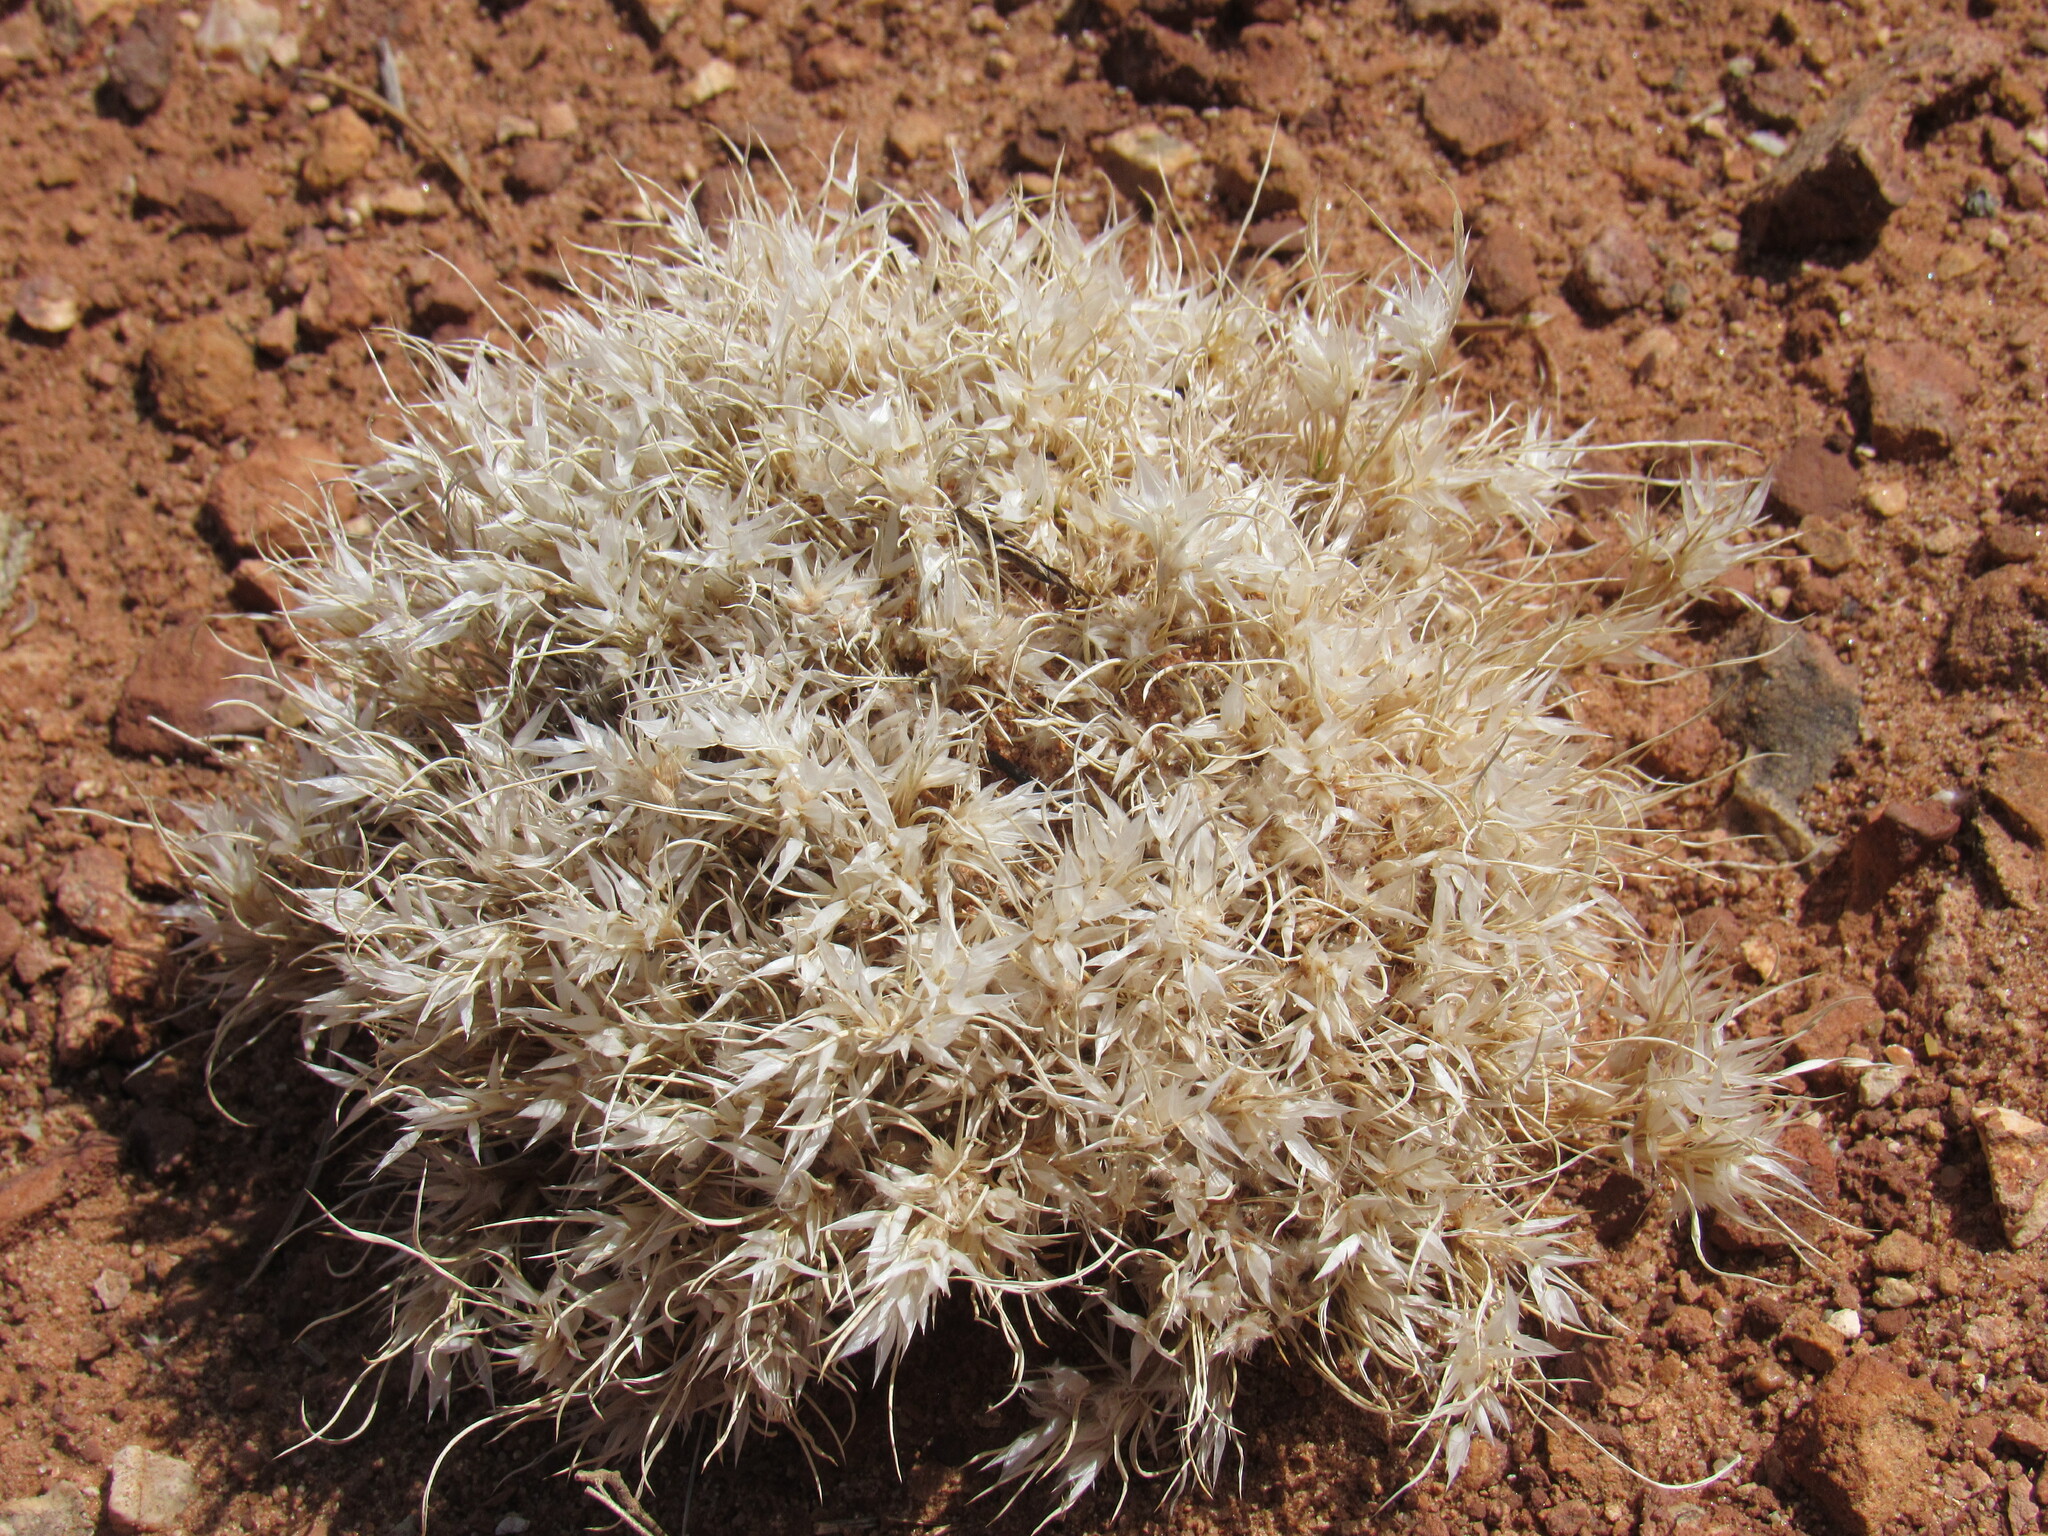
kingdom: Plantae
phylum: Tracheophyta
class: Liliopsida
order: Poales
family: Poaceae
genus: Dasyochloa
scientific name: Dasyochloa pulchella
